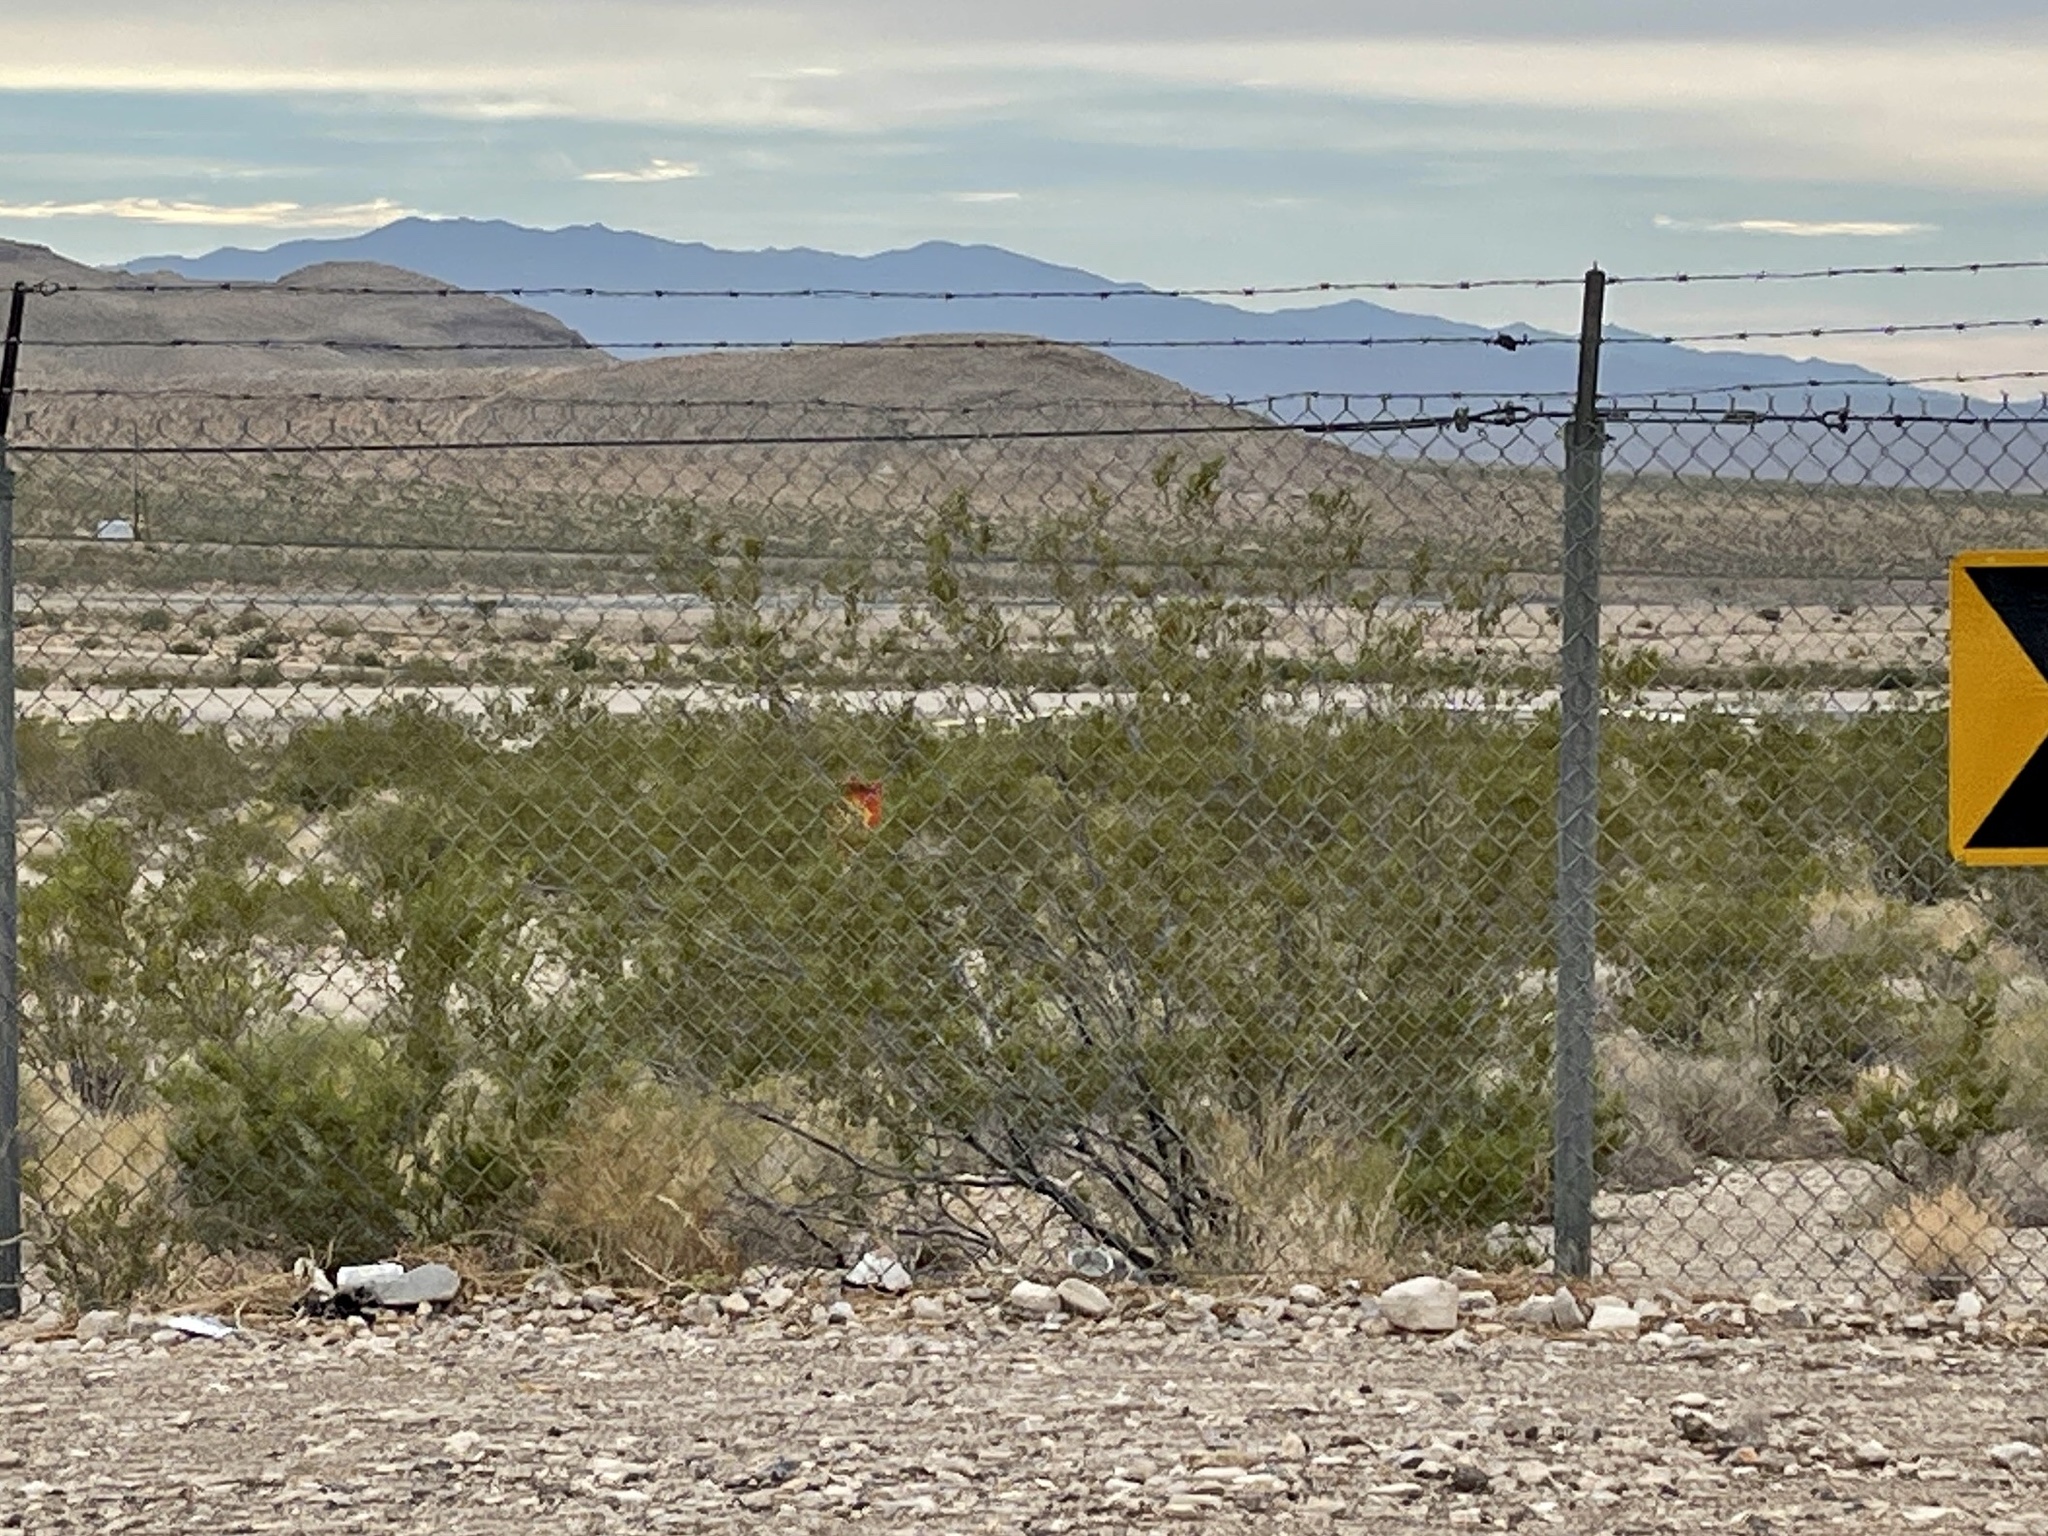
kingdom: Plantae
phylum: Tracheophyta
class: Magnoliopsida
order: Zygophyllales
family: Zygophyllaceae
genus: Larrea
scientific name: Larrea tridentata
